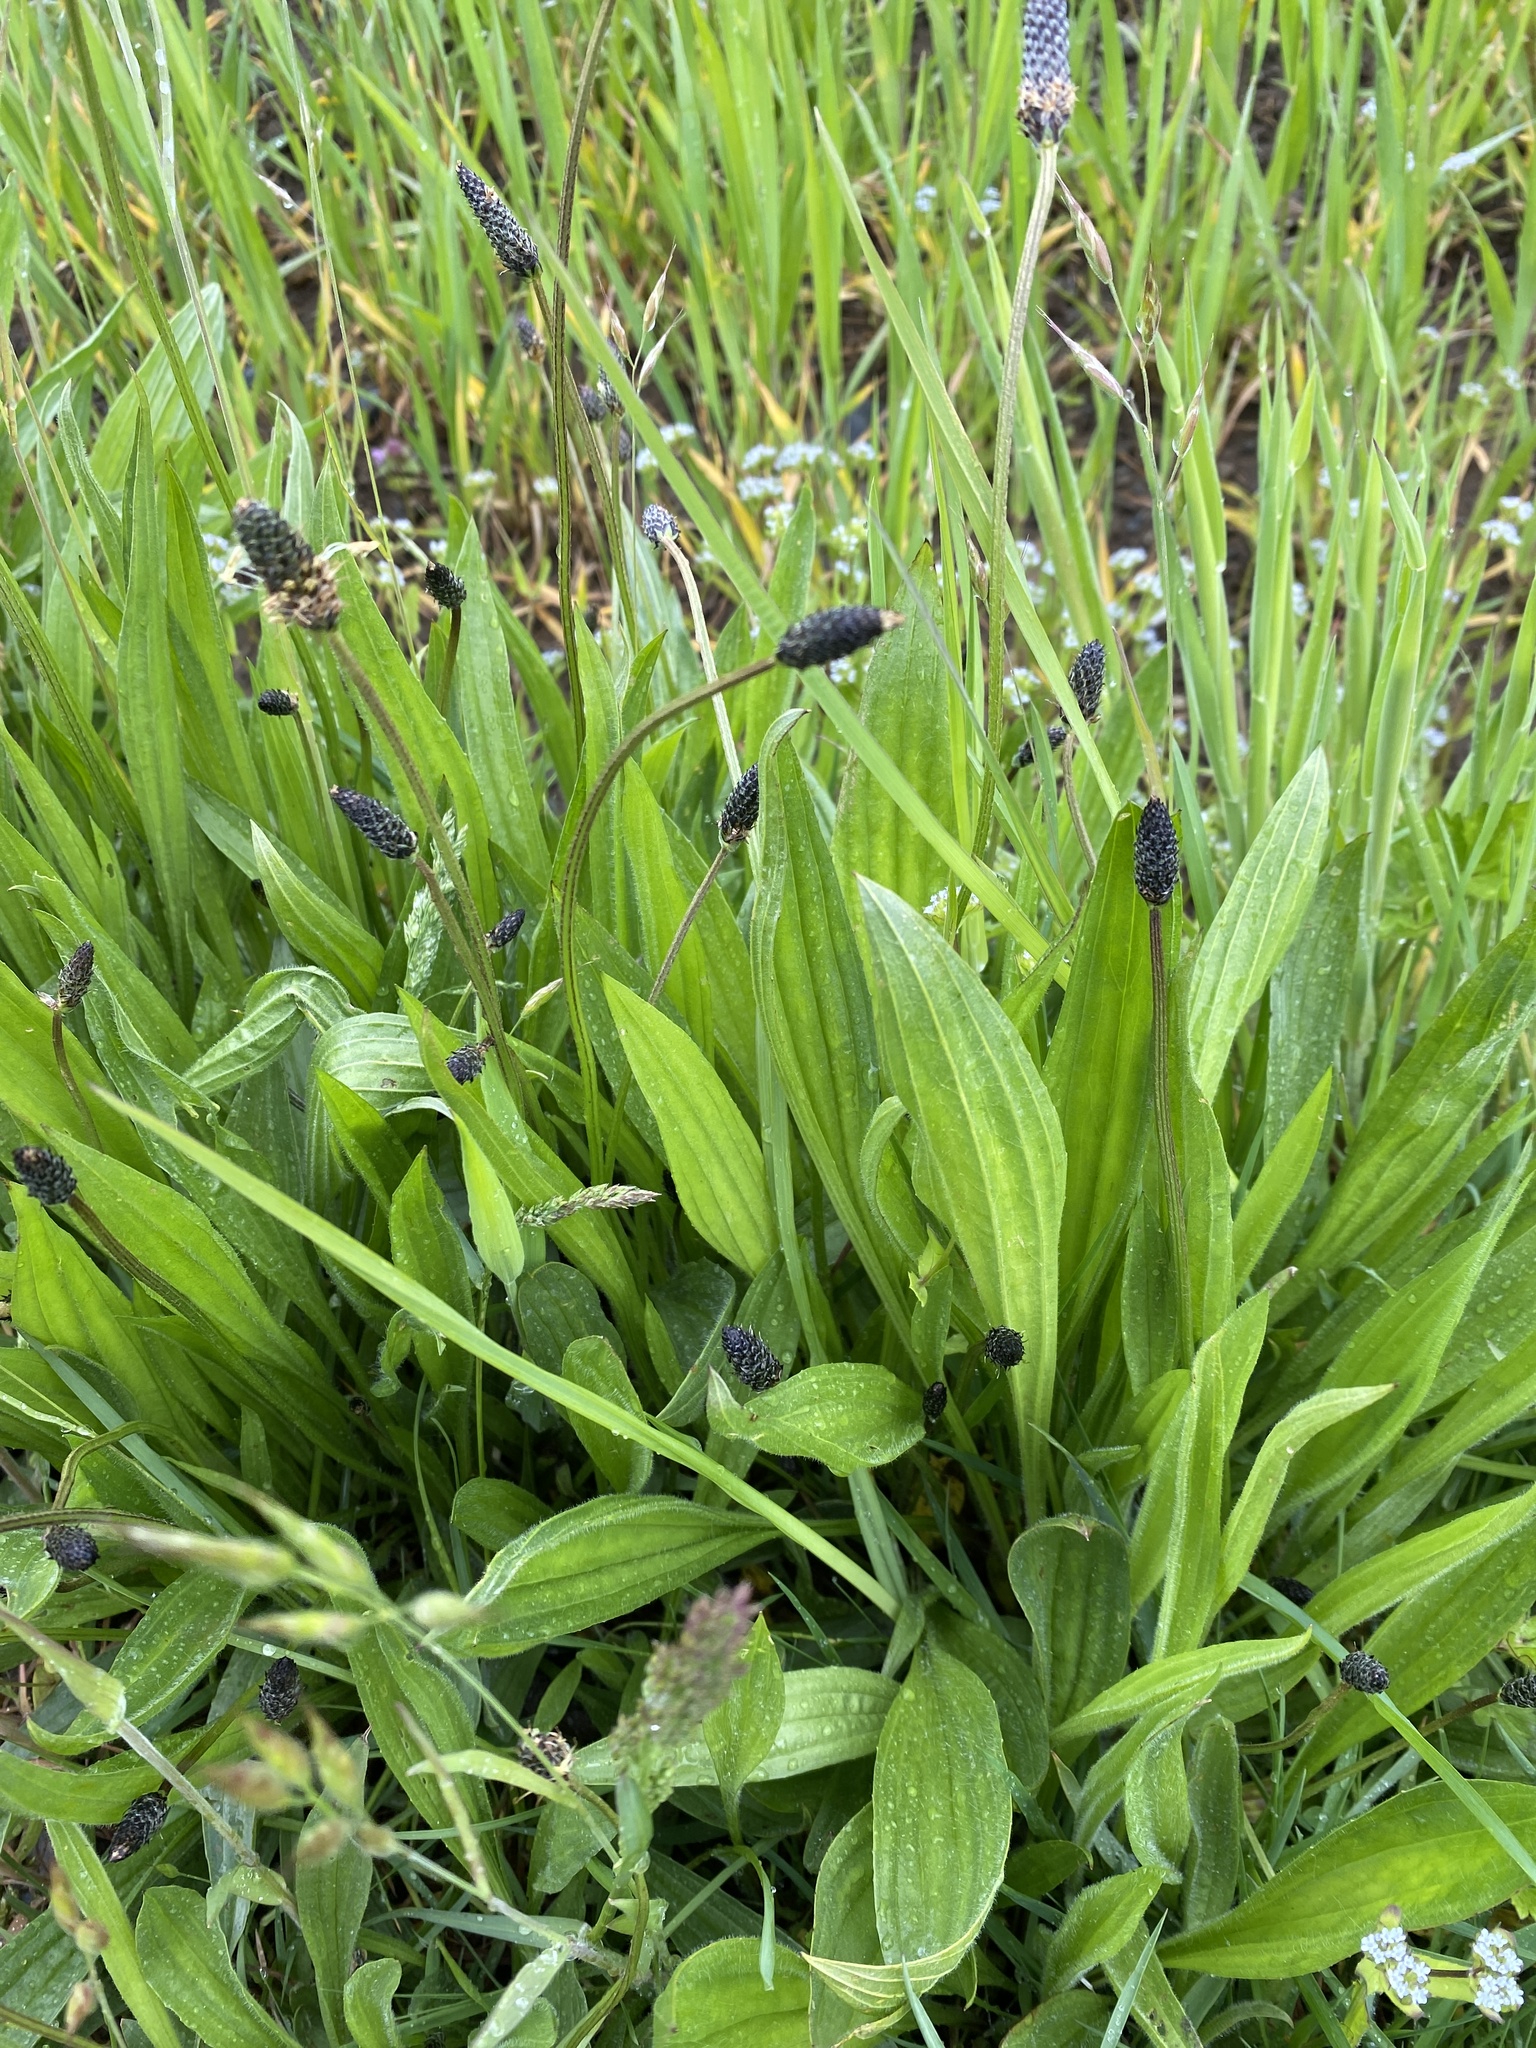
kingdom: Plantae
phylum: Tracheophyta
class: Magnoliopsida
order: Lamiales
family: Plantaginaceae
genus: Plantago
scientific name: Plantago lanceolata
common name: Ribwort plantain
